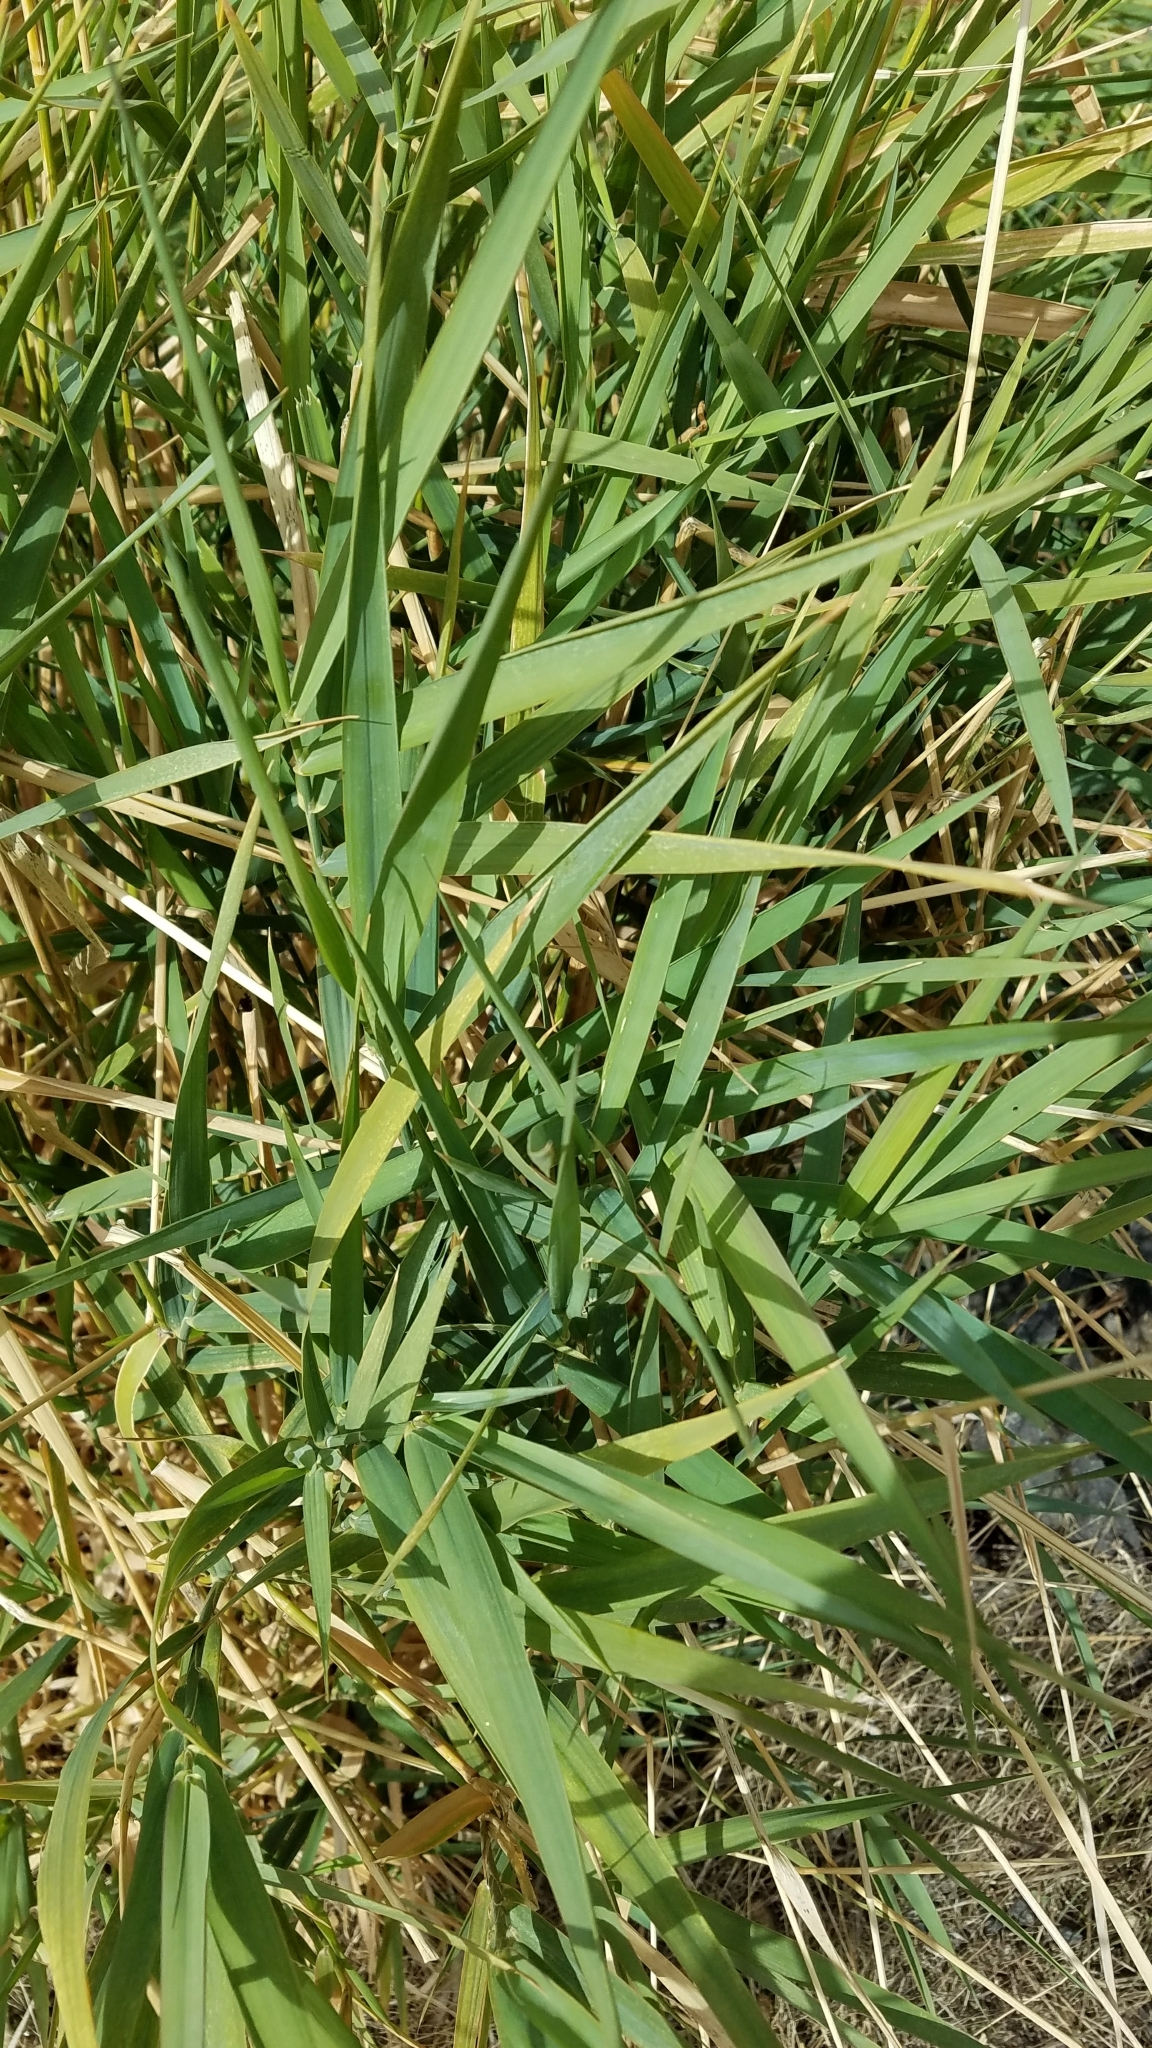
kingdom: Plantae
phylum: Tracheophyta
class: Liliopsida
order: Poales
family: Poaceae
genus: Phalaris
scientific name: Phalaris arundinacea
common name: Reed canary-grass
